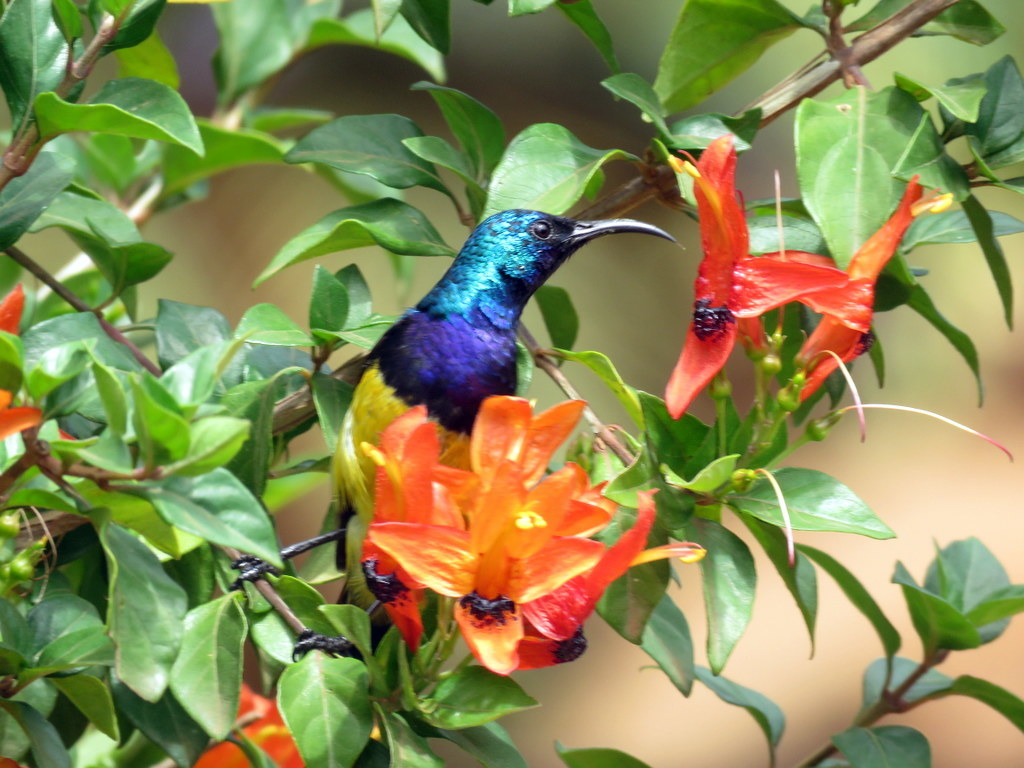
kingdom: Animalia
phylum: Chordata
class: Aves
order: Passeriformes
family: Nectariniidae
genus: Cinnyris
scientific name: Cinnyris venustus
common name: Variable sunbird
